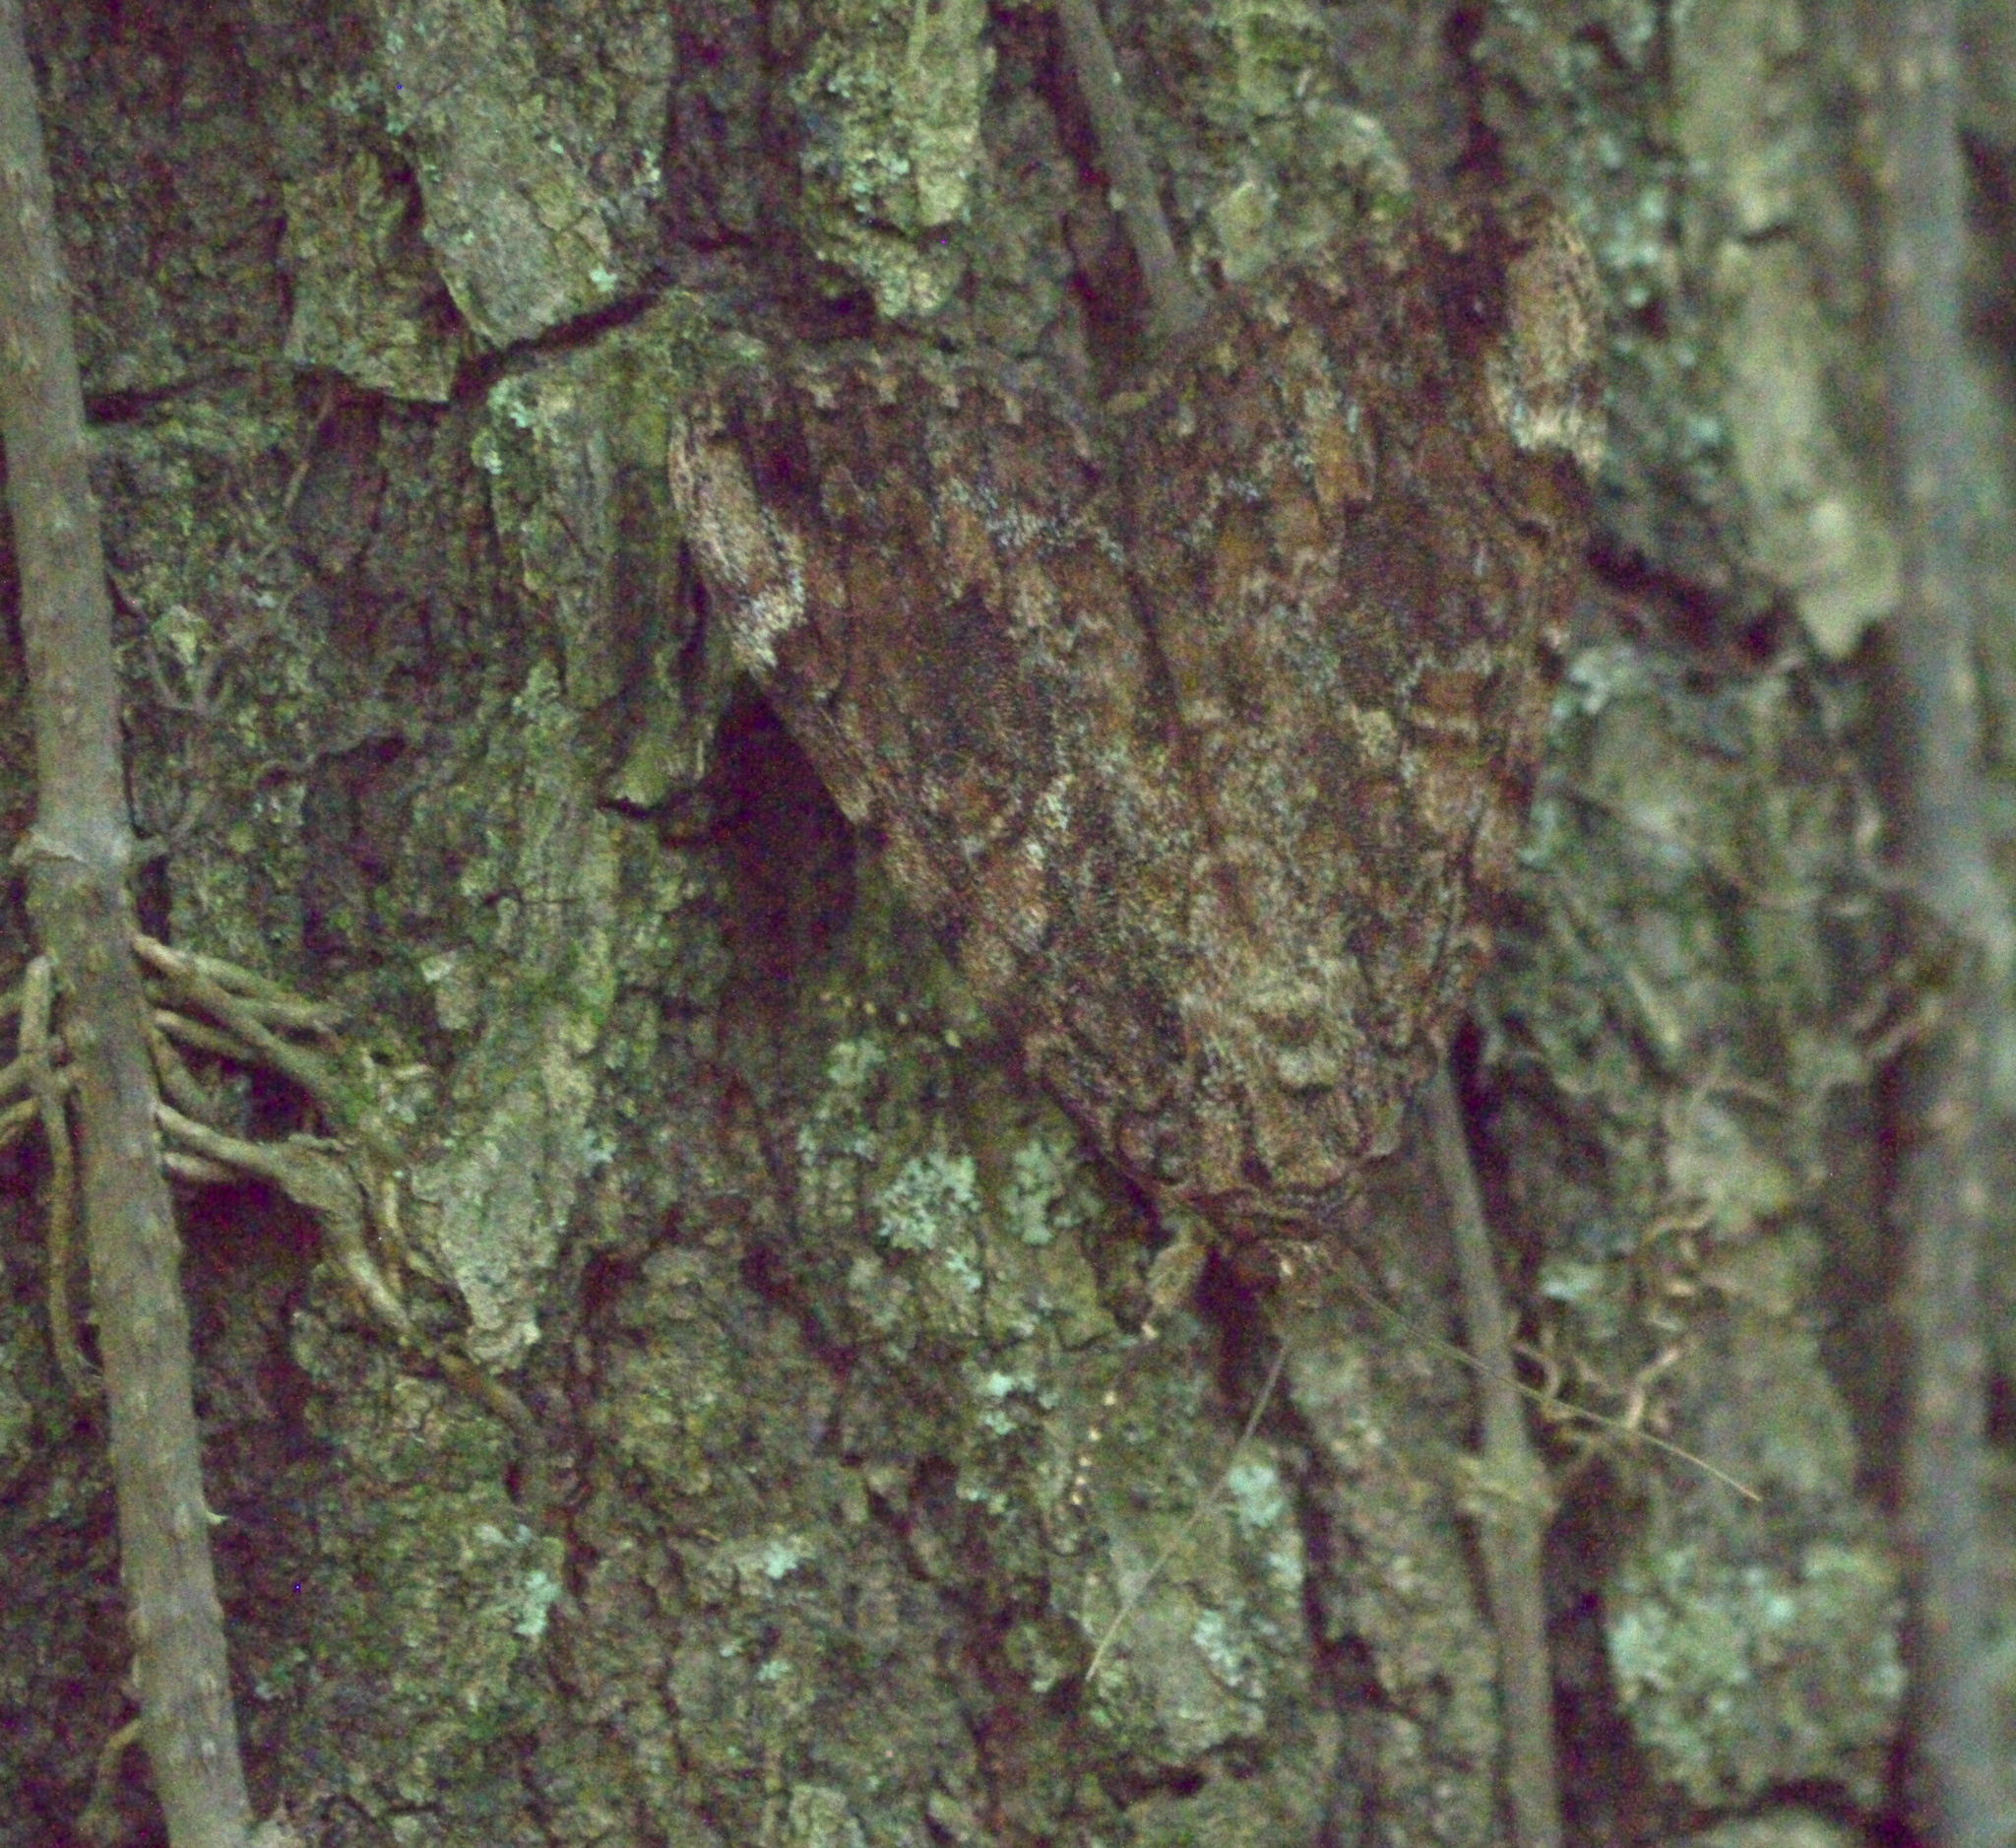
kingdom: Animalia
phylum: Arthropoda
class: Insecta
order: Lepidoptera
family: Erebidae
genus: Catocala
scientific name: Catocala innubens
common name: Betrothed underwing
